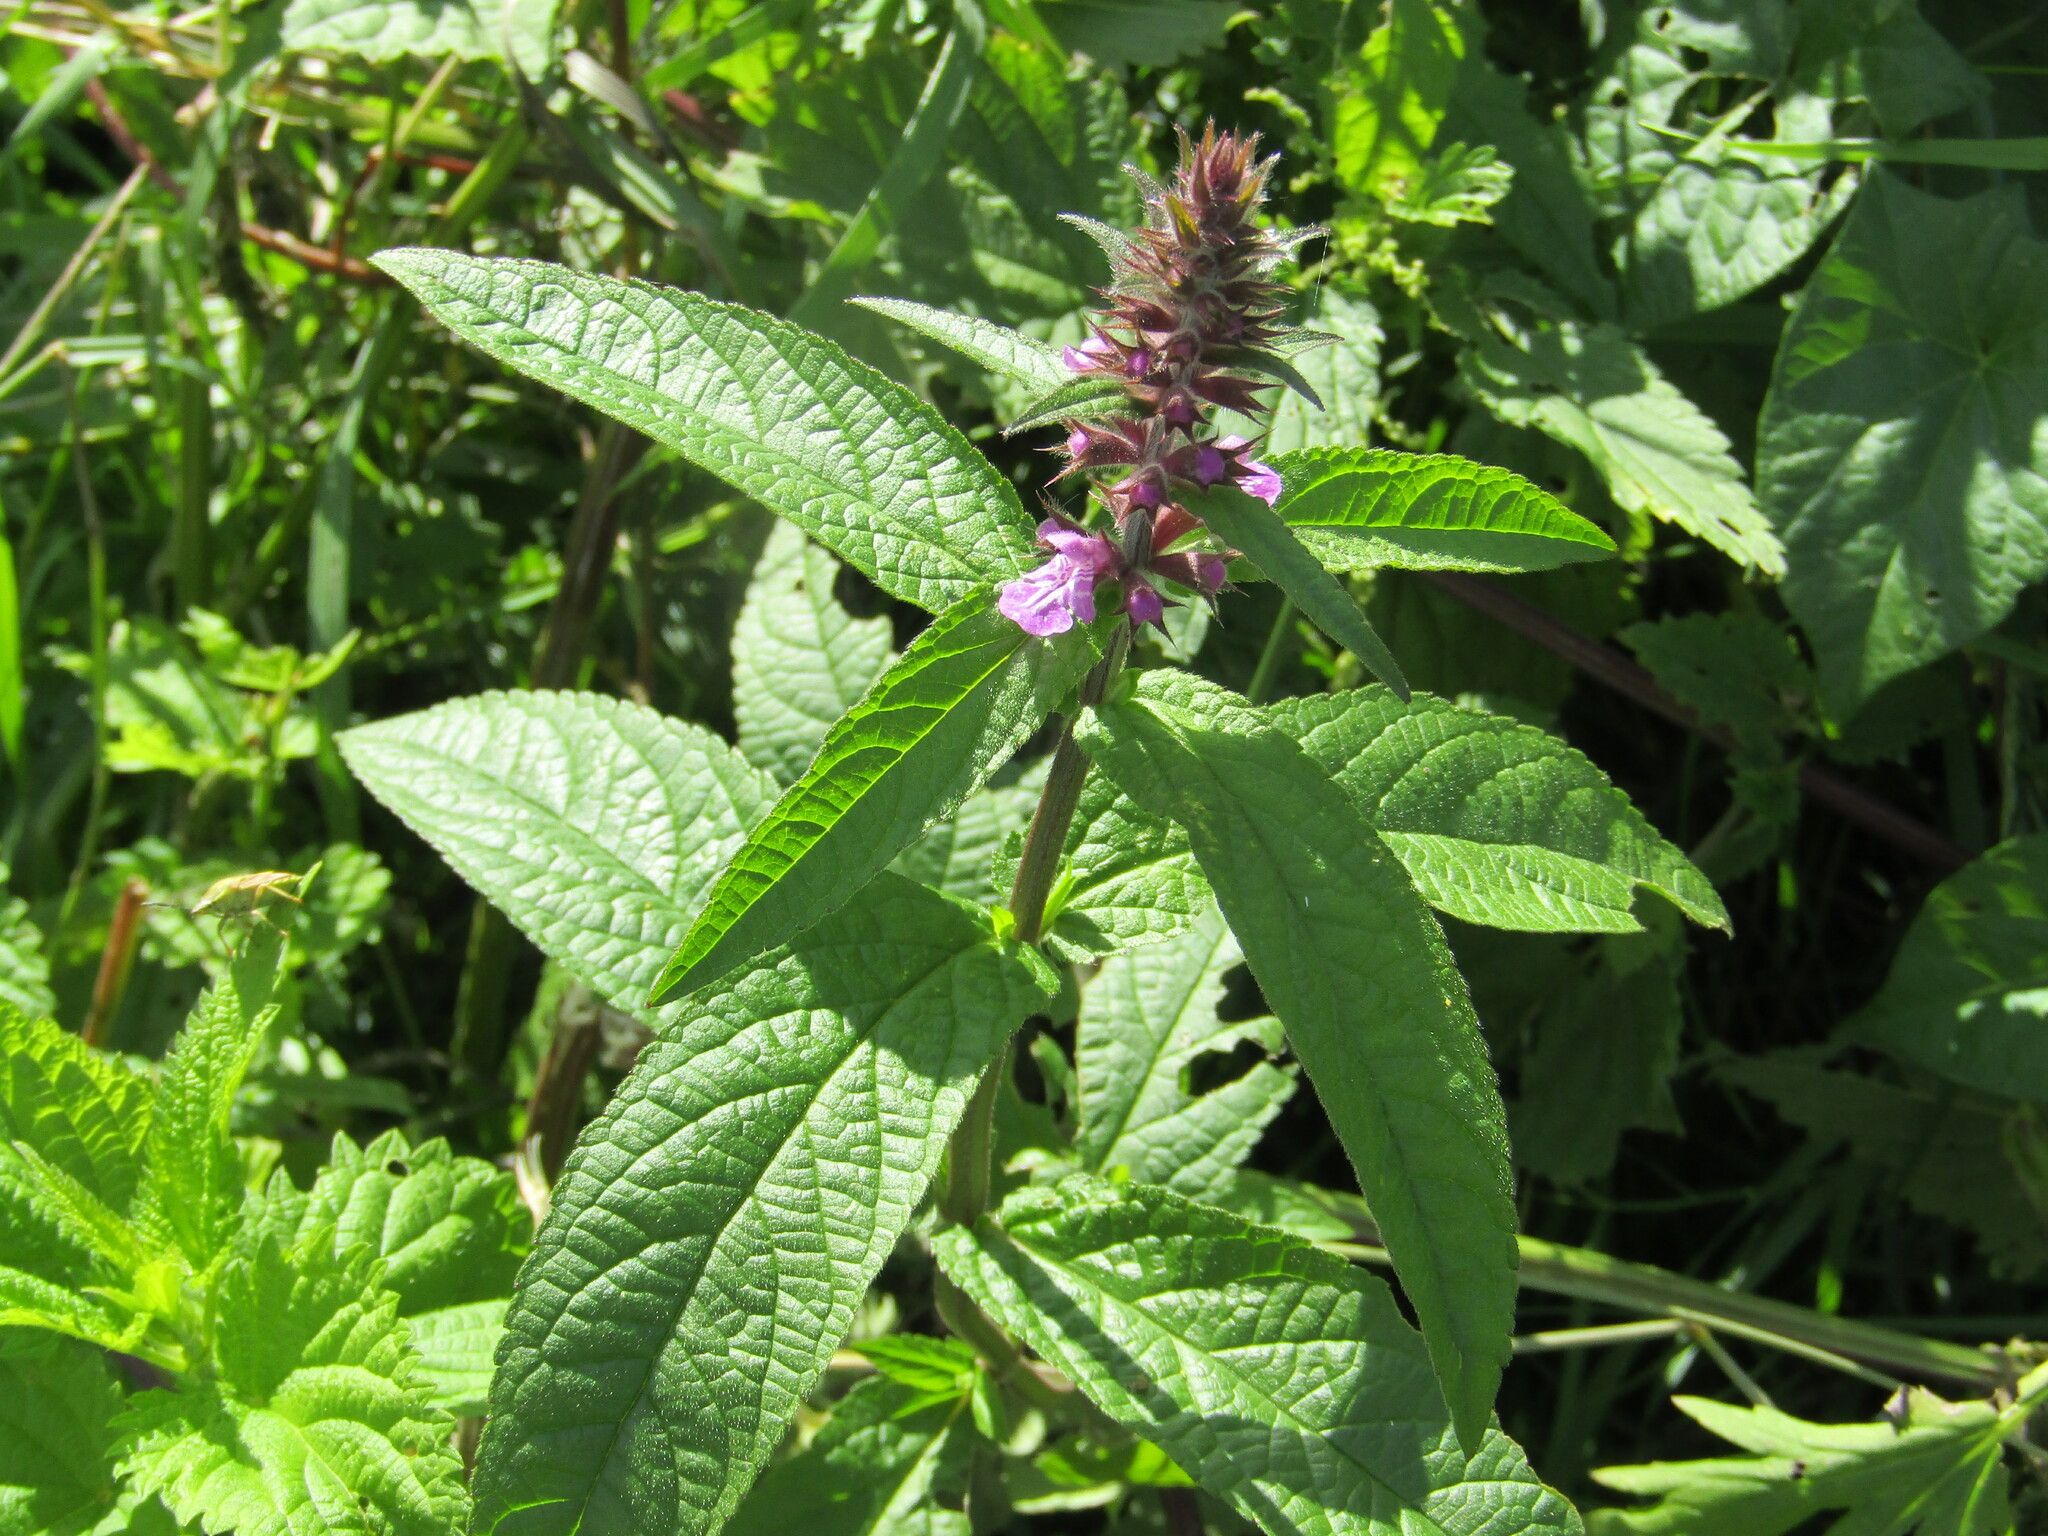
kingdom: Plantae
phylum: Tracheophyta
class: Magnoliopsida
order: Lamiales
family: Lamiaceae
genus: Stachys
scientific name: Stachys palustris
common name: Marsh woundwort
